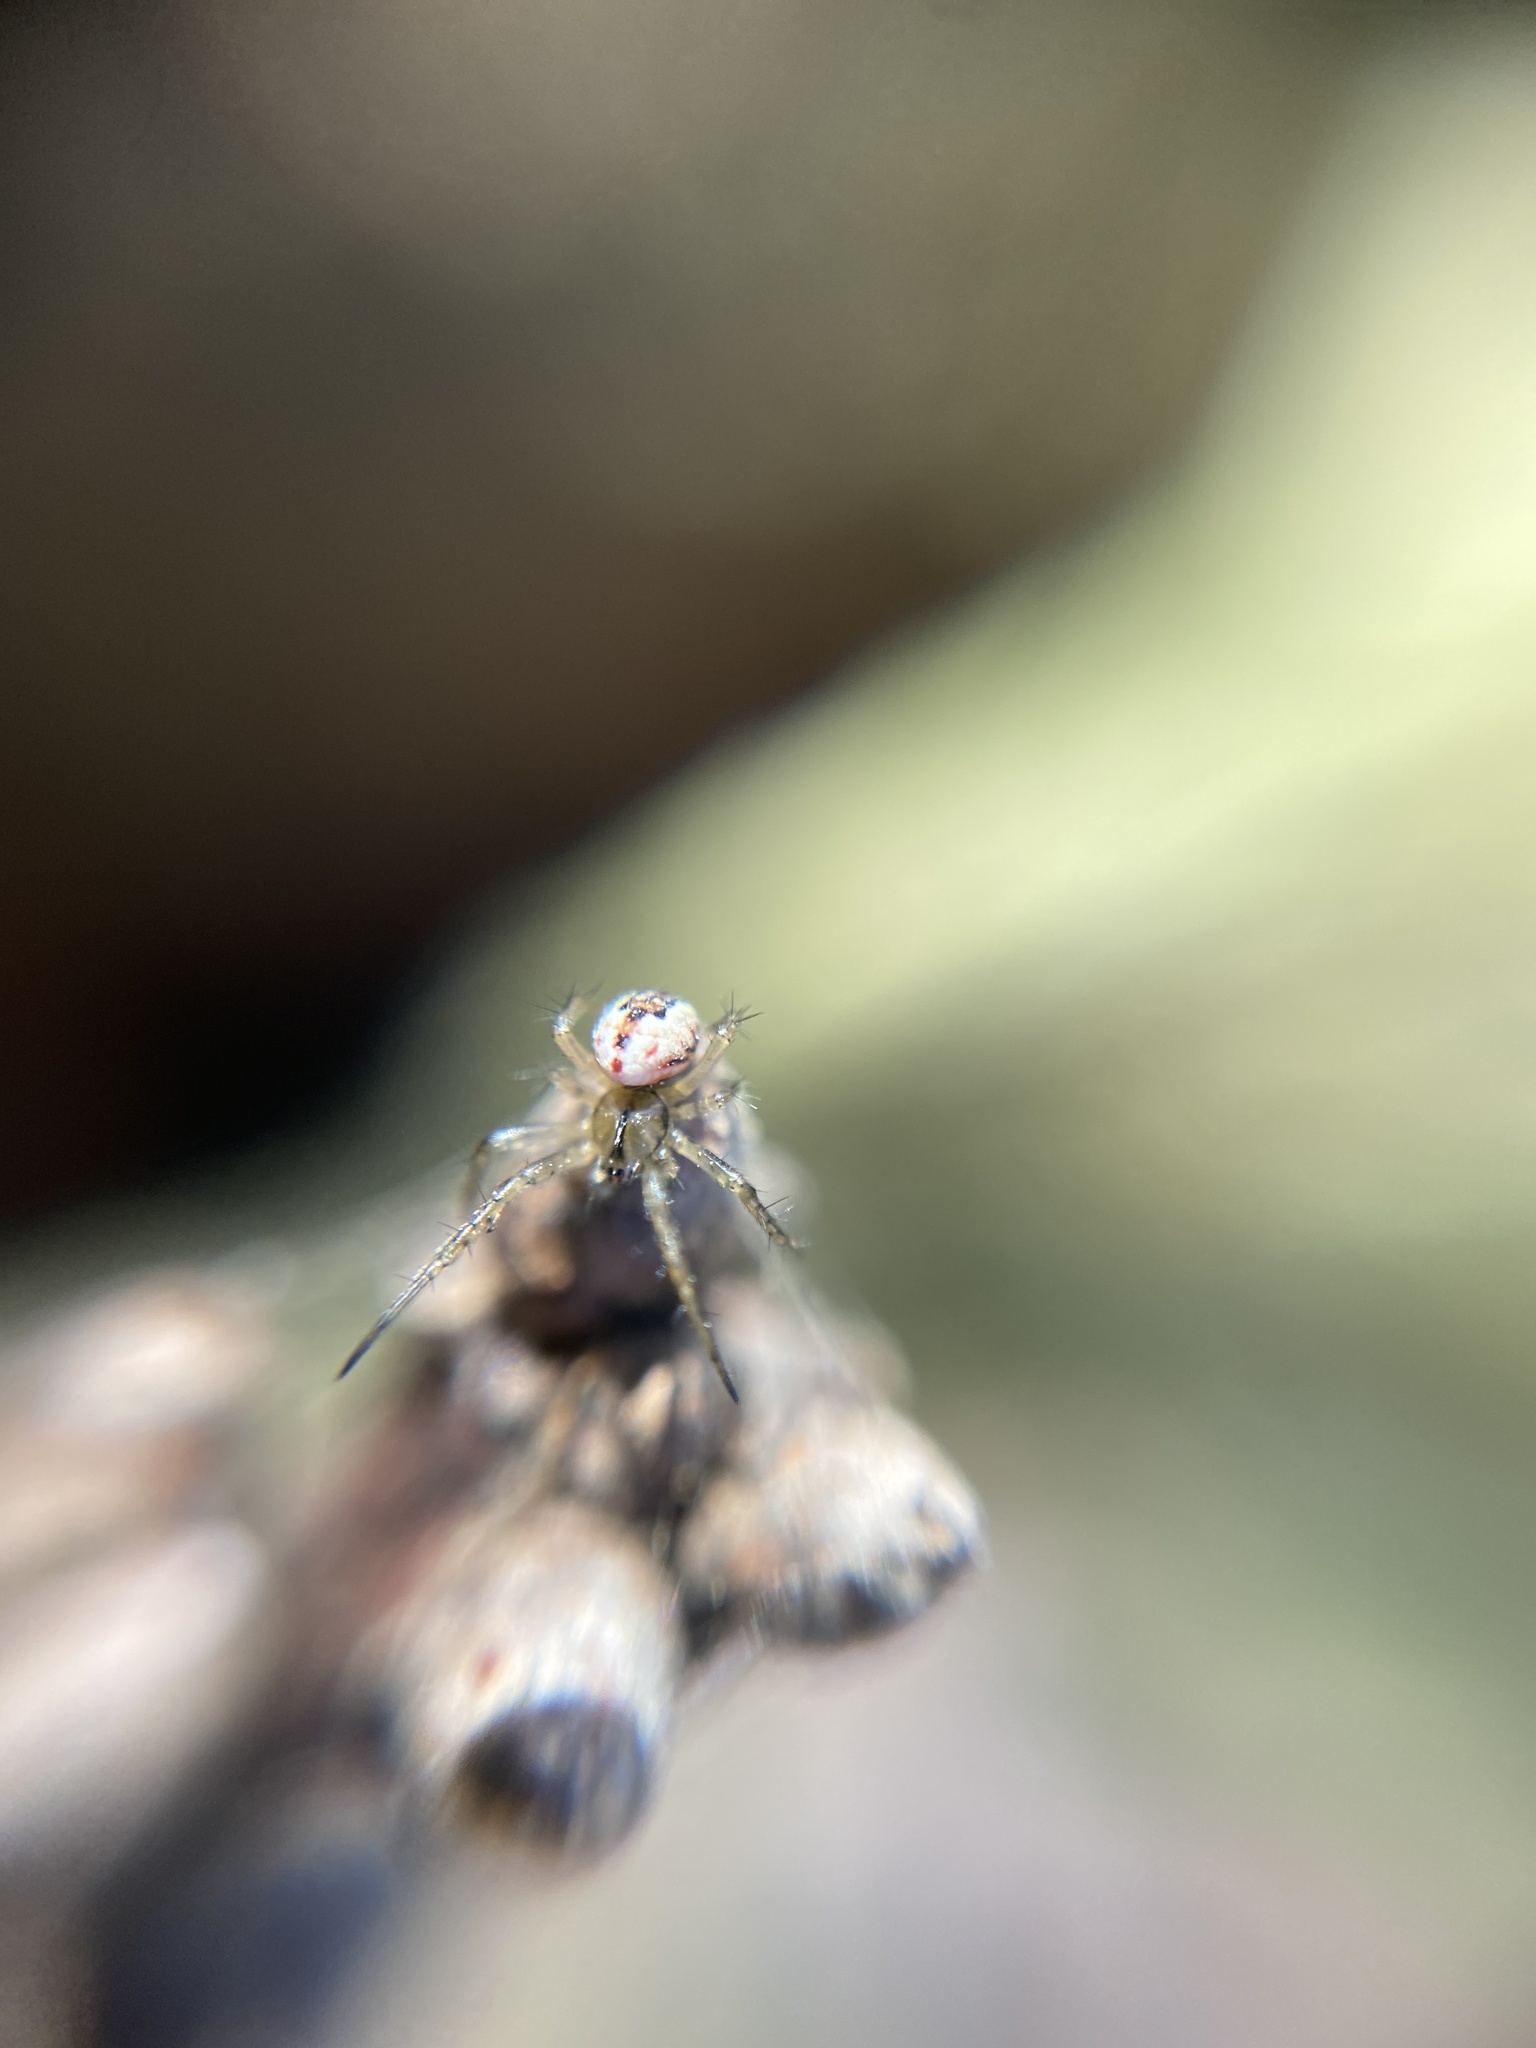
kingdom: Animalia
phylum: Arthropoda
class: Arachnida
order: Araneae
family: Araneidae
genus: Mangora
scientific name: Mangora acalypha
